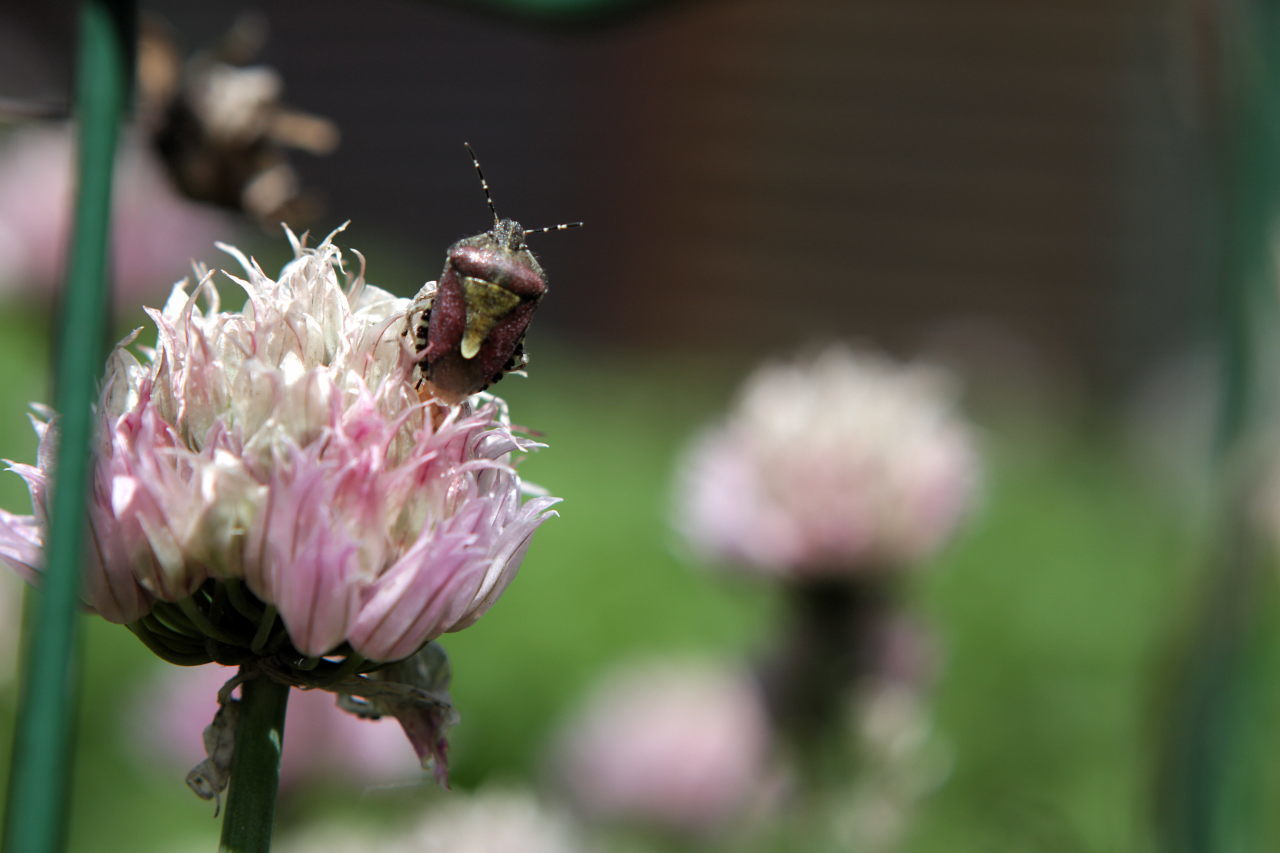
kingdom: Animalia
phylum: Arthropoda
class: Insecta
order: Hemiptera
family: Pentatomidae
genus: Dolycoris
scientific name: Dolycoris baccarum
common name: Sloe bug
